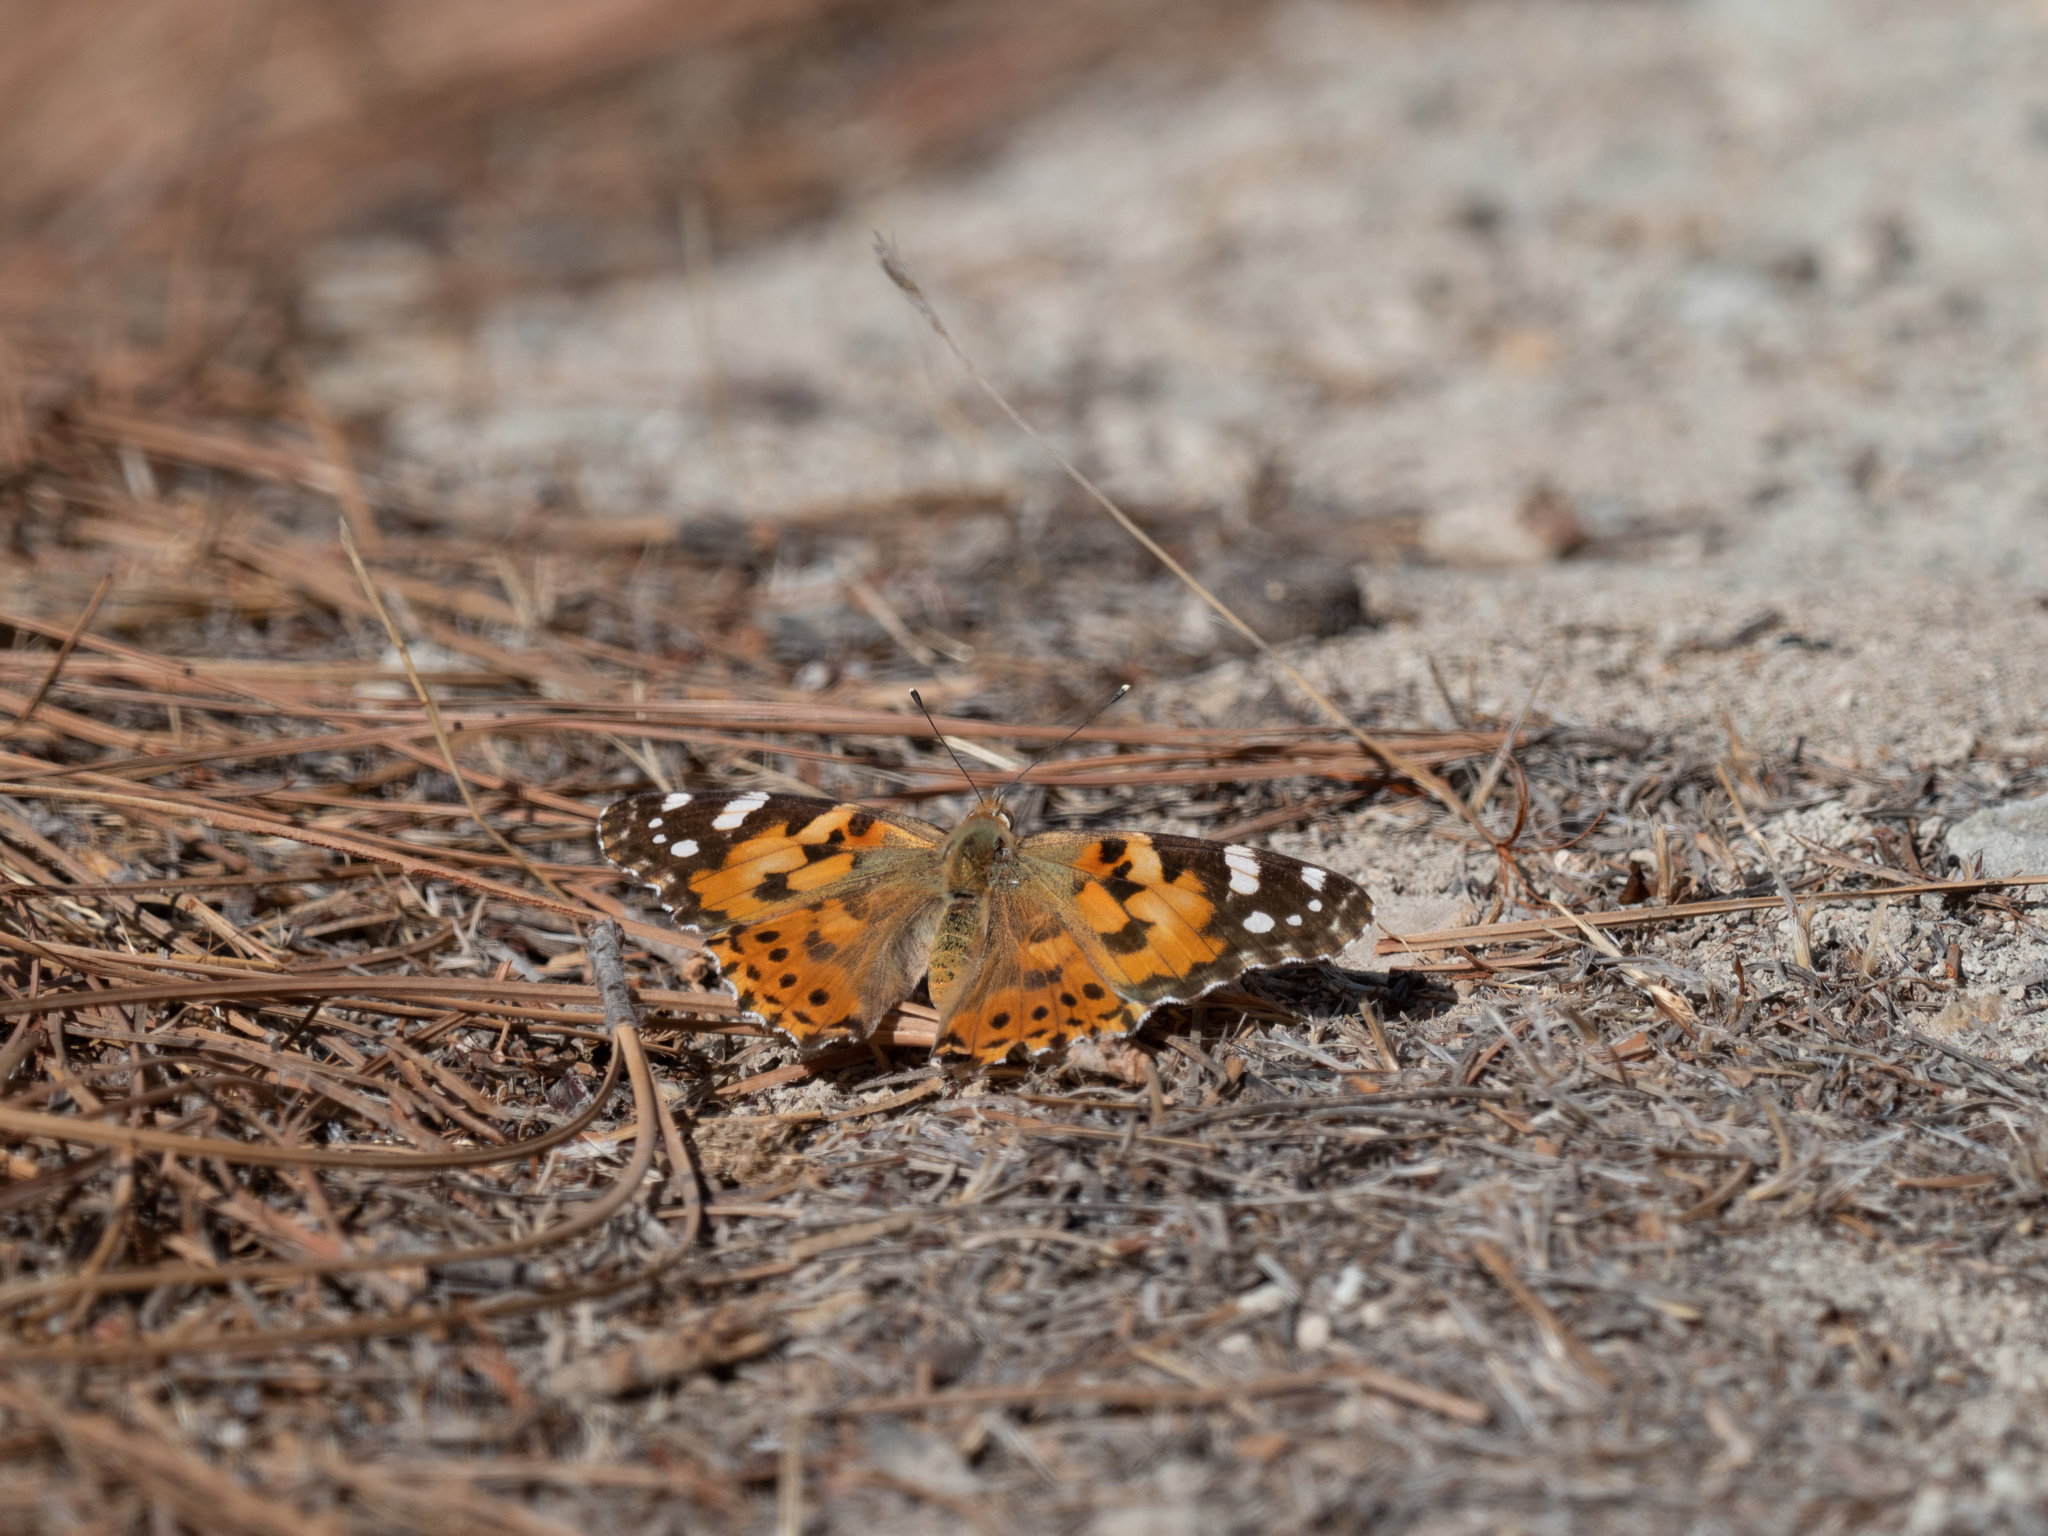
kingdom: Animalia
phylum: Arthropoda
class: Insecta
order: Lepidoptera
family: Nymphalidae
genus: Vanessa
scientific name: Vanessa cardui
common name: Painted lady
